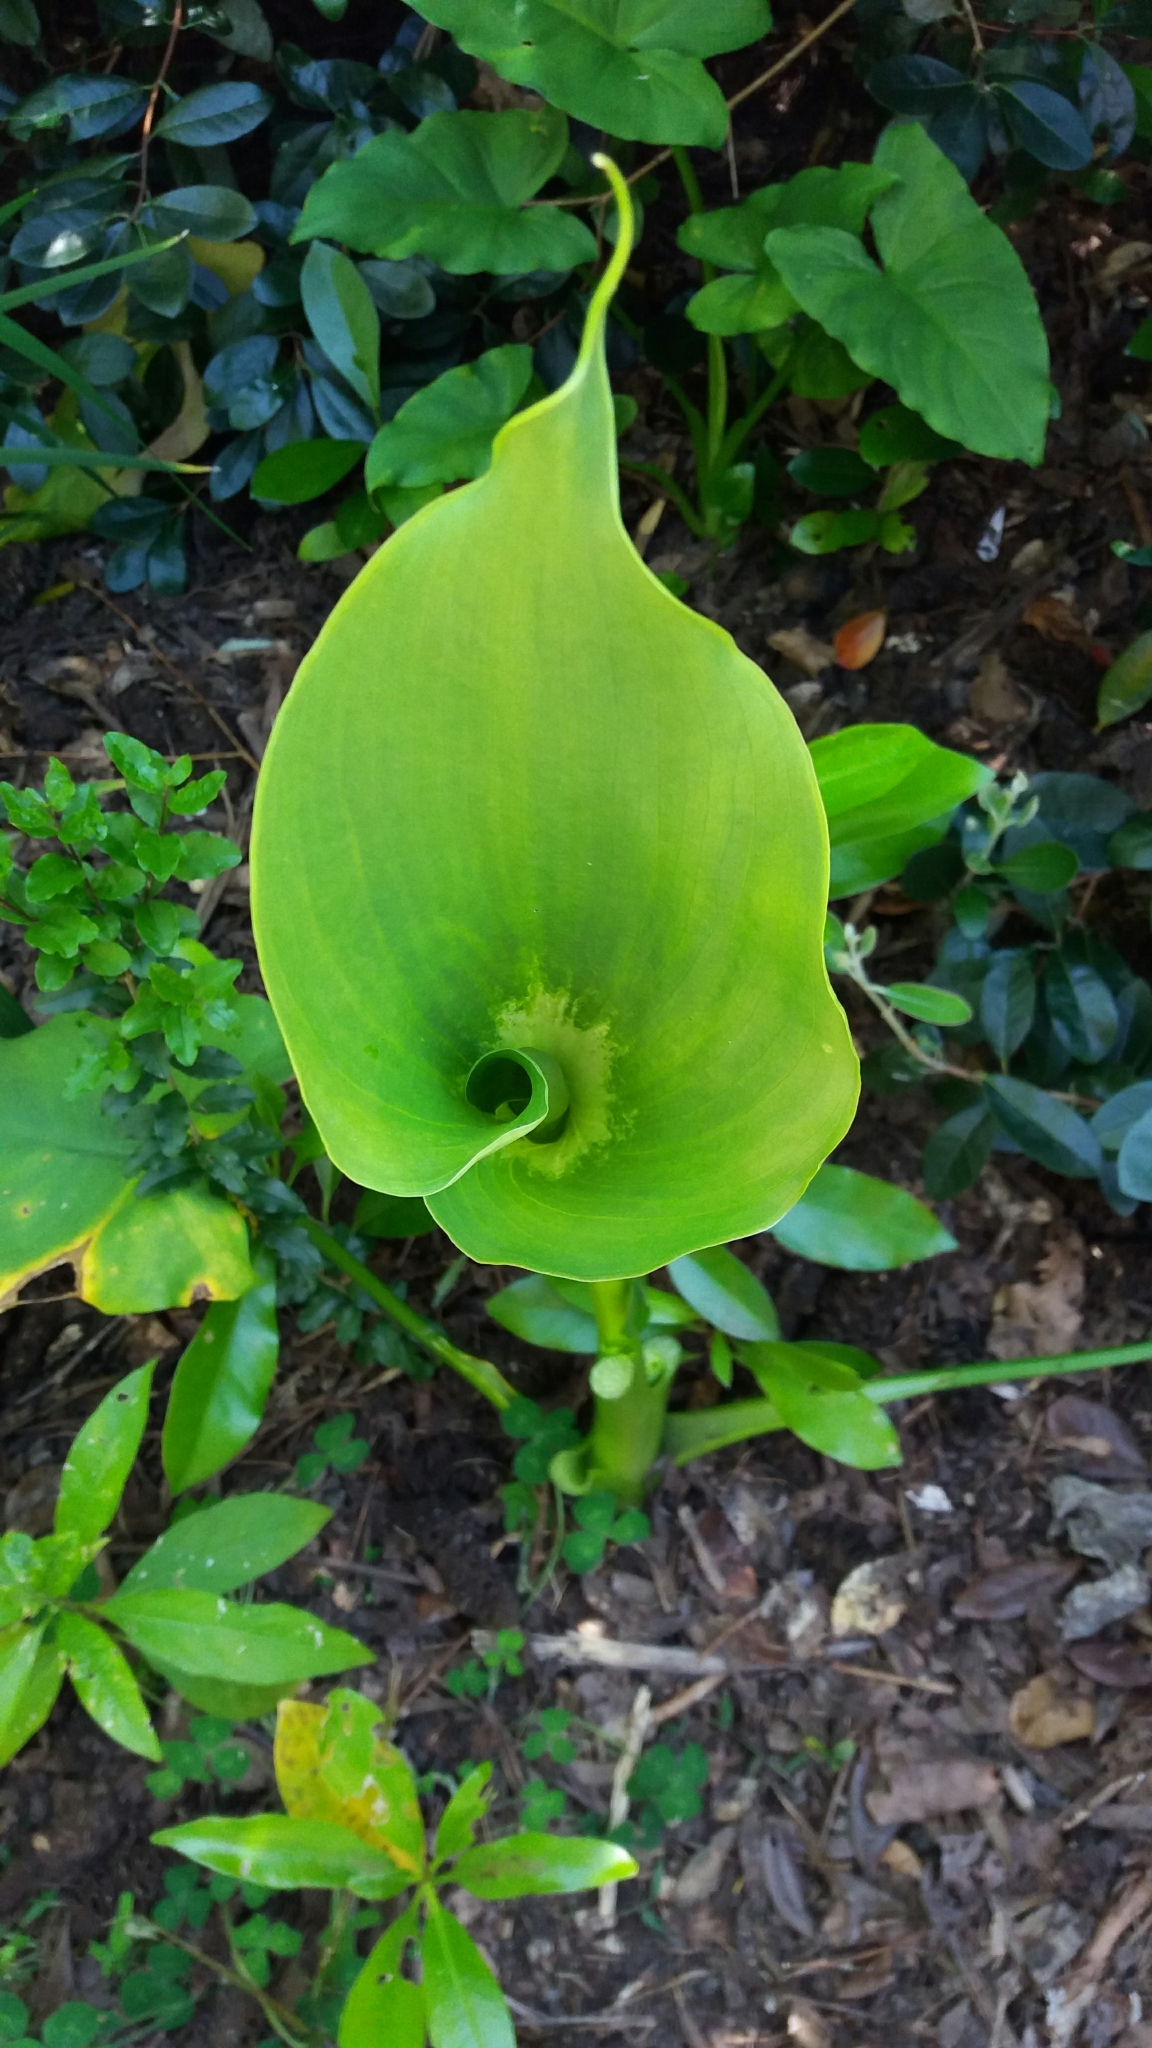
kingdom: Plantae
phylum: Tracheophyta
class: Liliopsida
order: Alismatales
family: Araceae
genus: Zantedeschia
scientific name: Zantedeschia aethiopica
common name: Altar-lily
